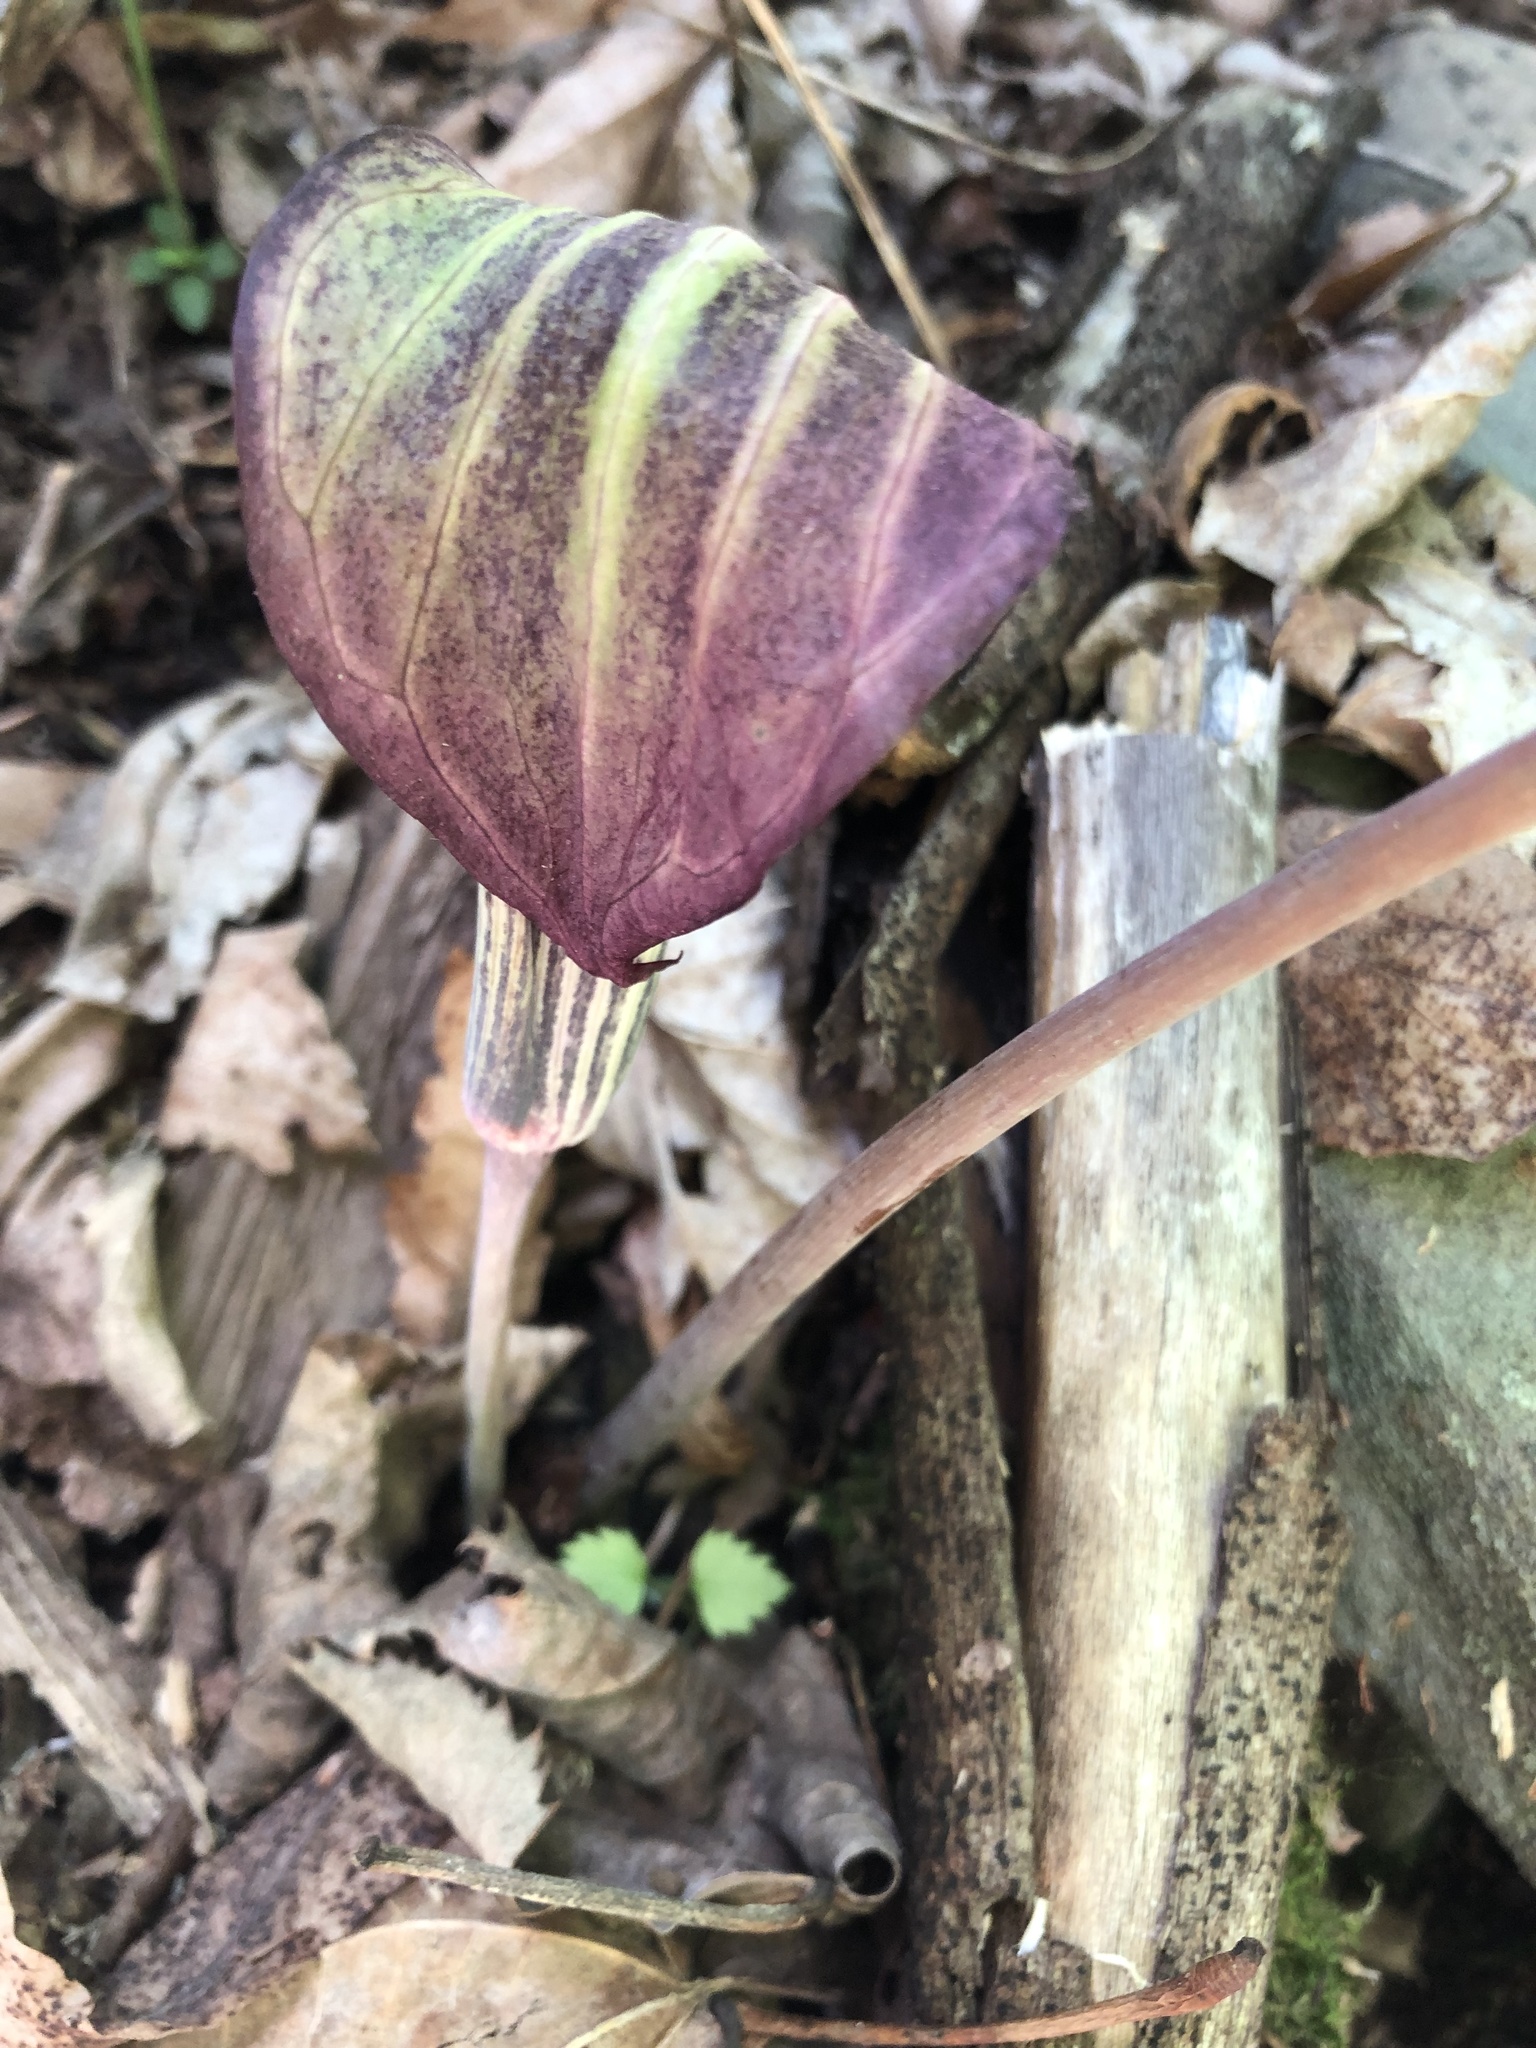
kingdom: Plantae
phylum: Tracheophyta
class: Liliopsida
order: Alismatales
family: Araceae
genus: Arisaema
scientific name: Arisaema triphyllum
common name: Jack-in-the-pulpit
